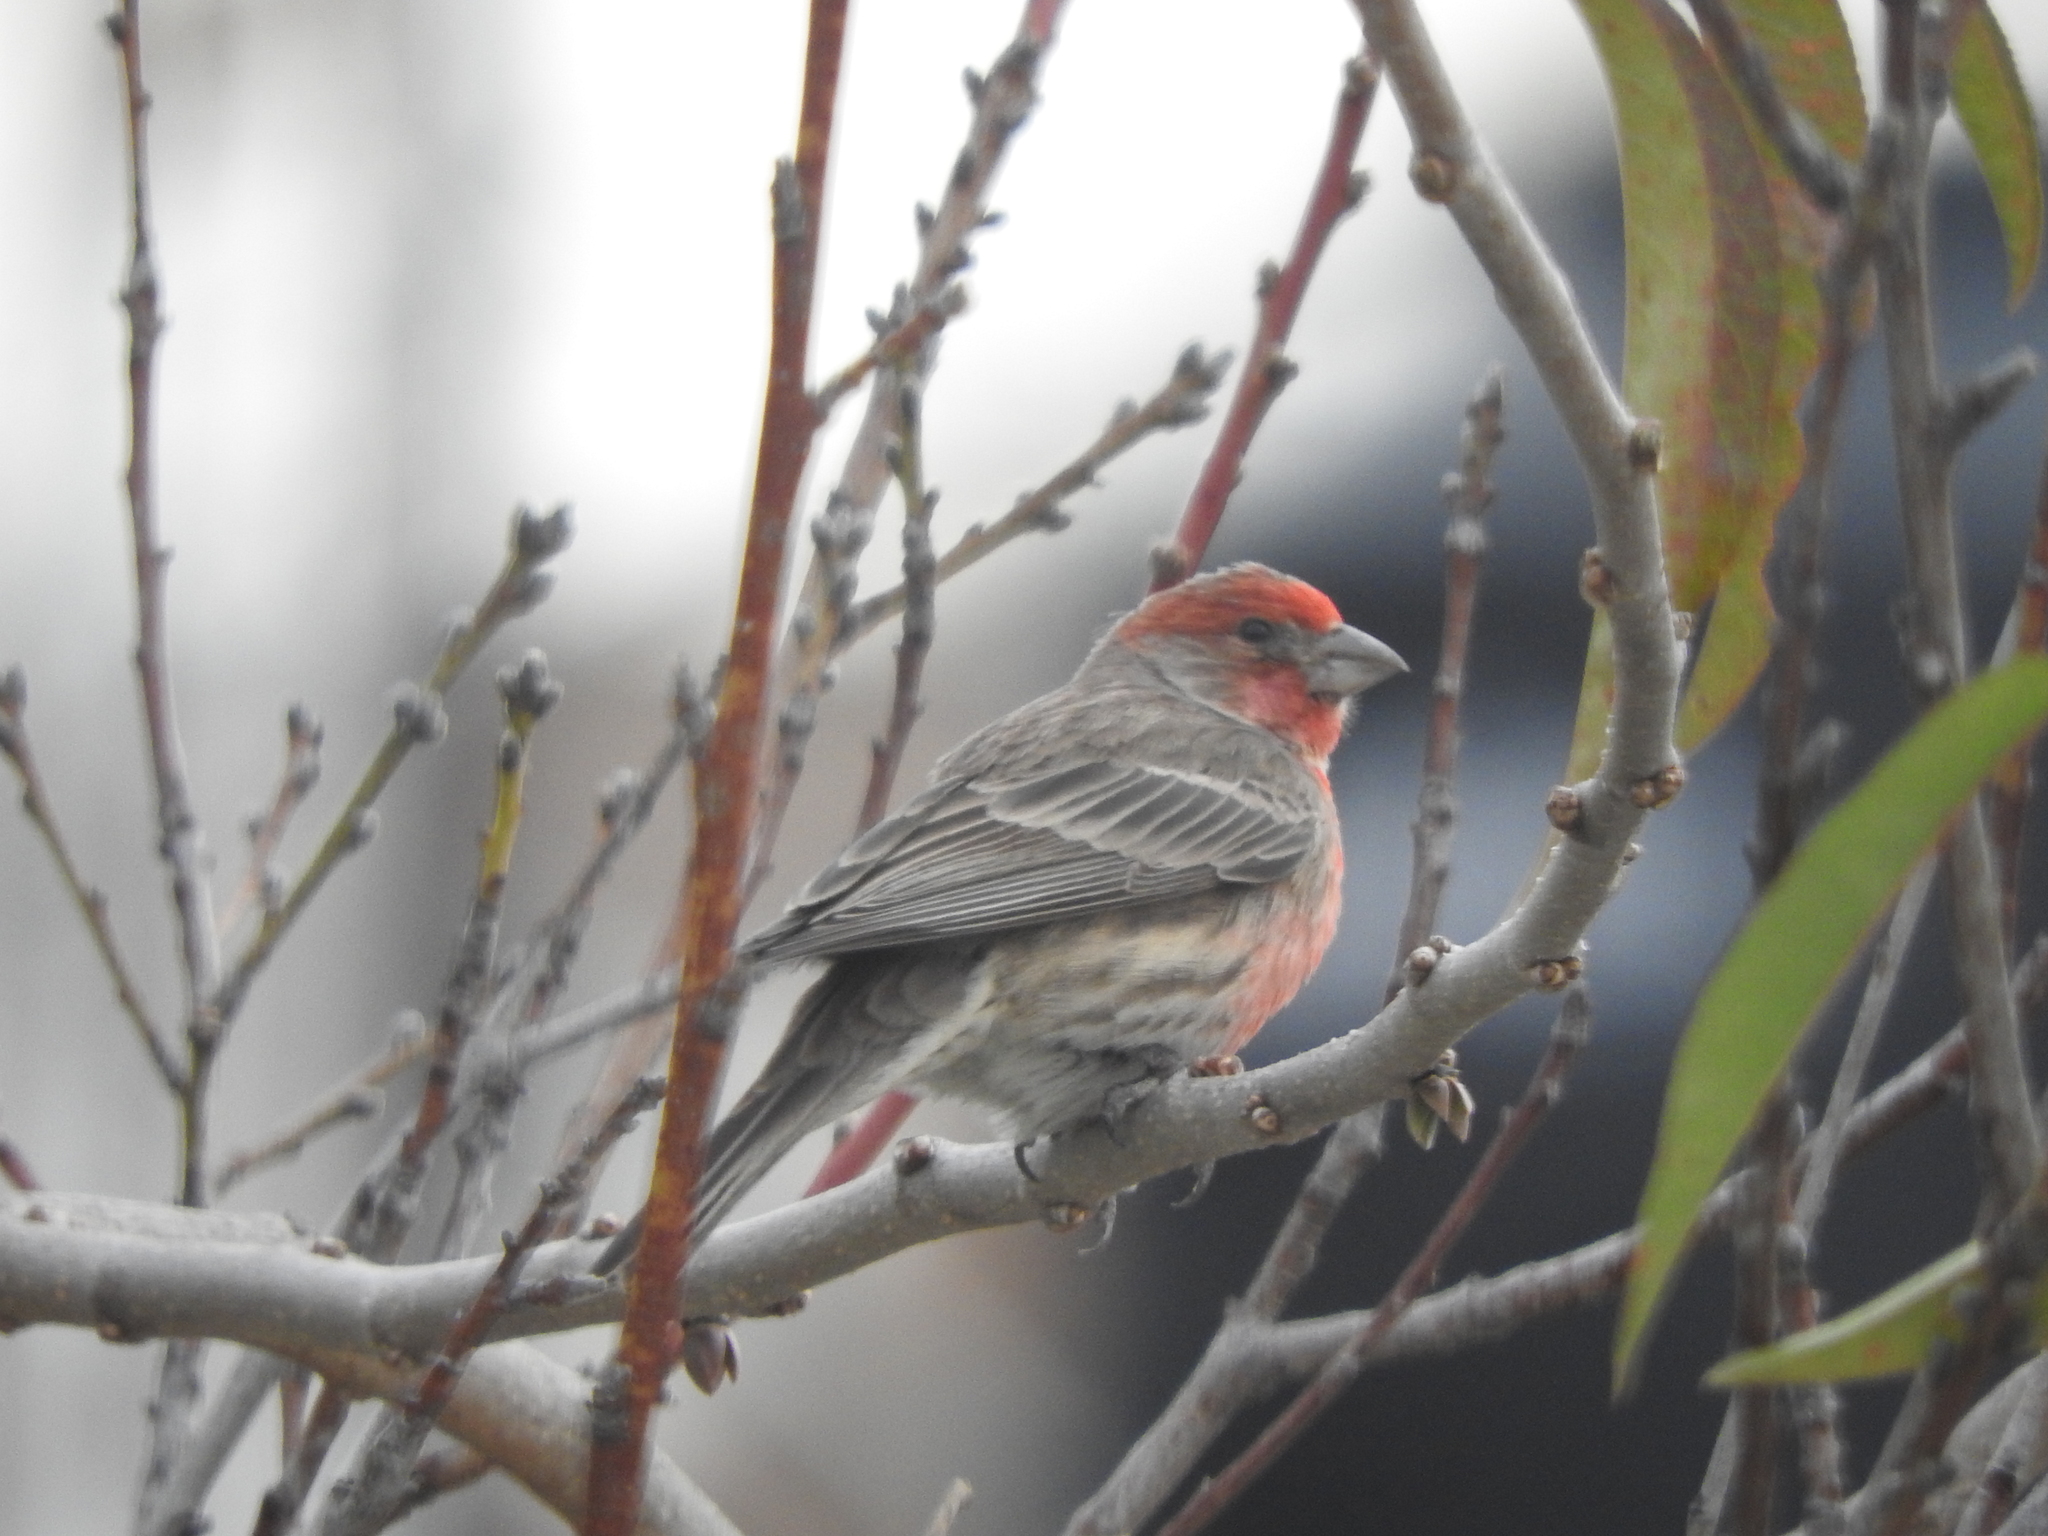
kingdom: Animalia
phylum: Chordata
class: Aves
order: Passeriformes
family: Fringillidae
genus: Haemorhous
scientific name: Haemorhous mexicanus
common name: House finch
